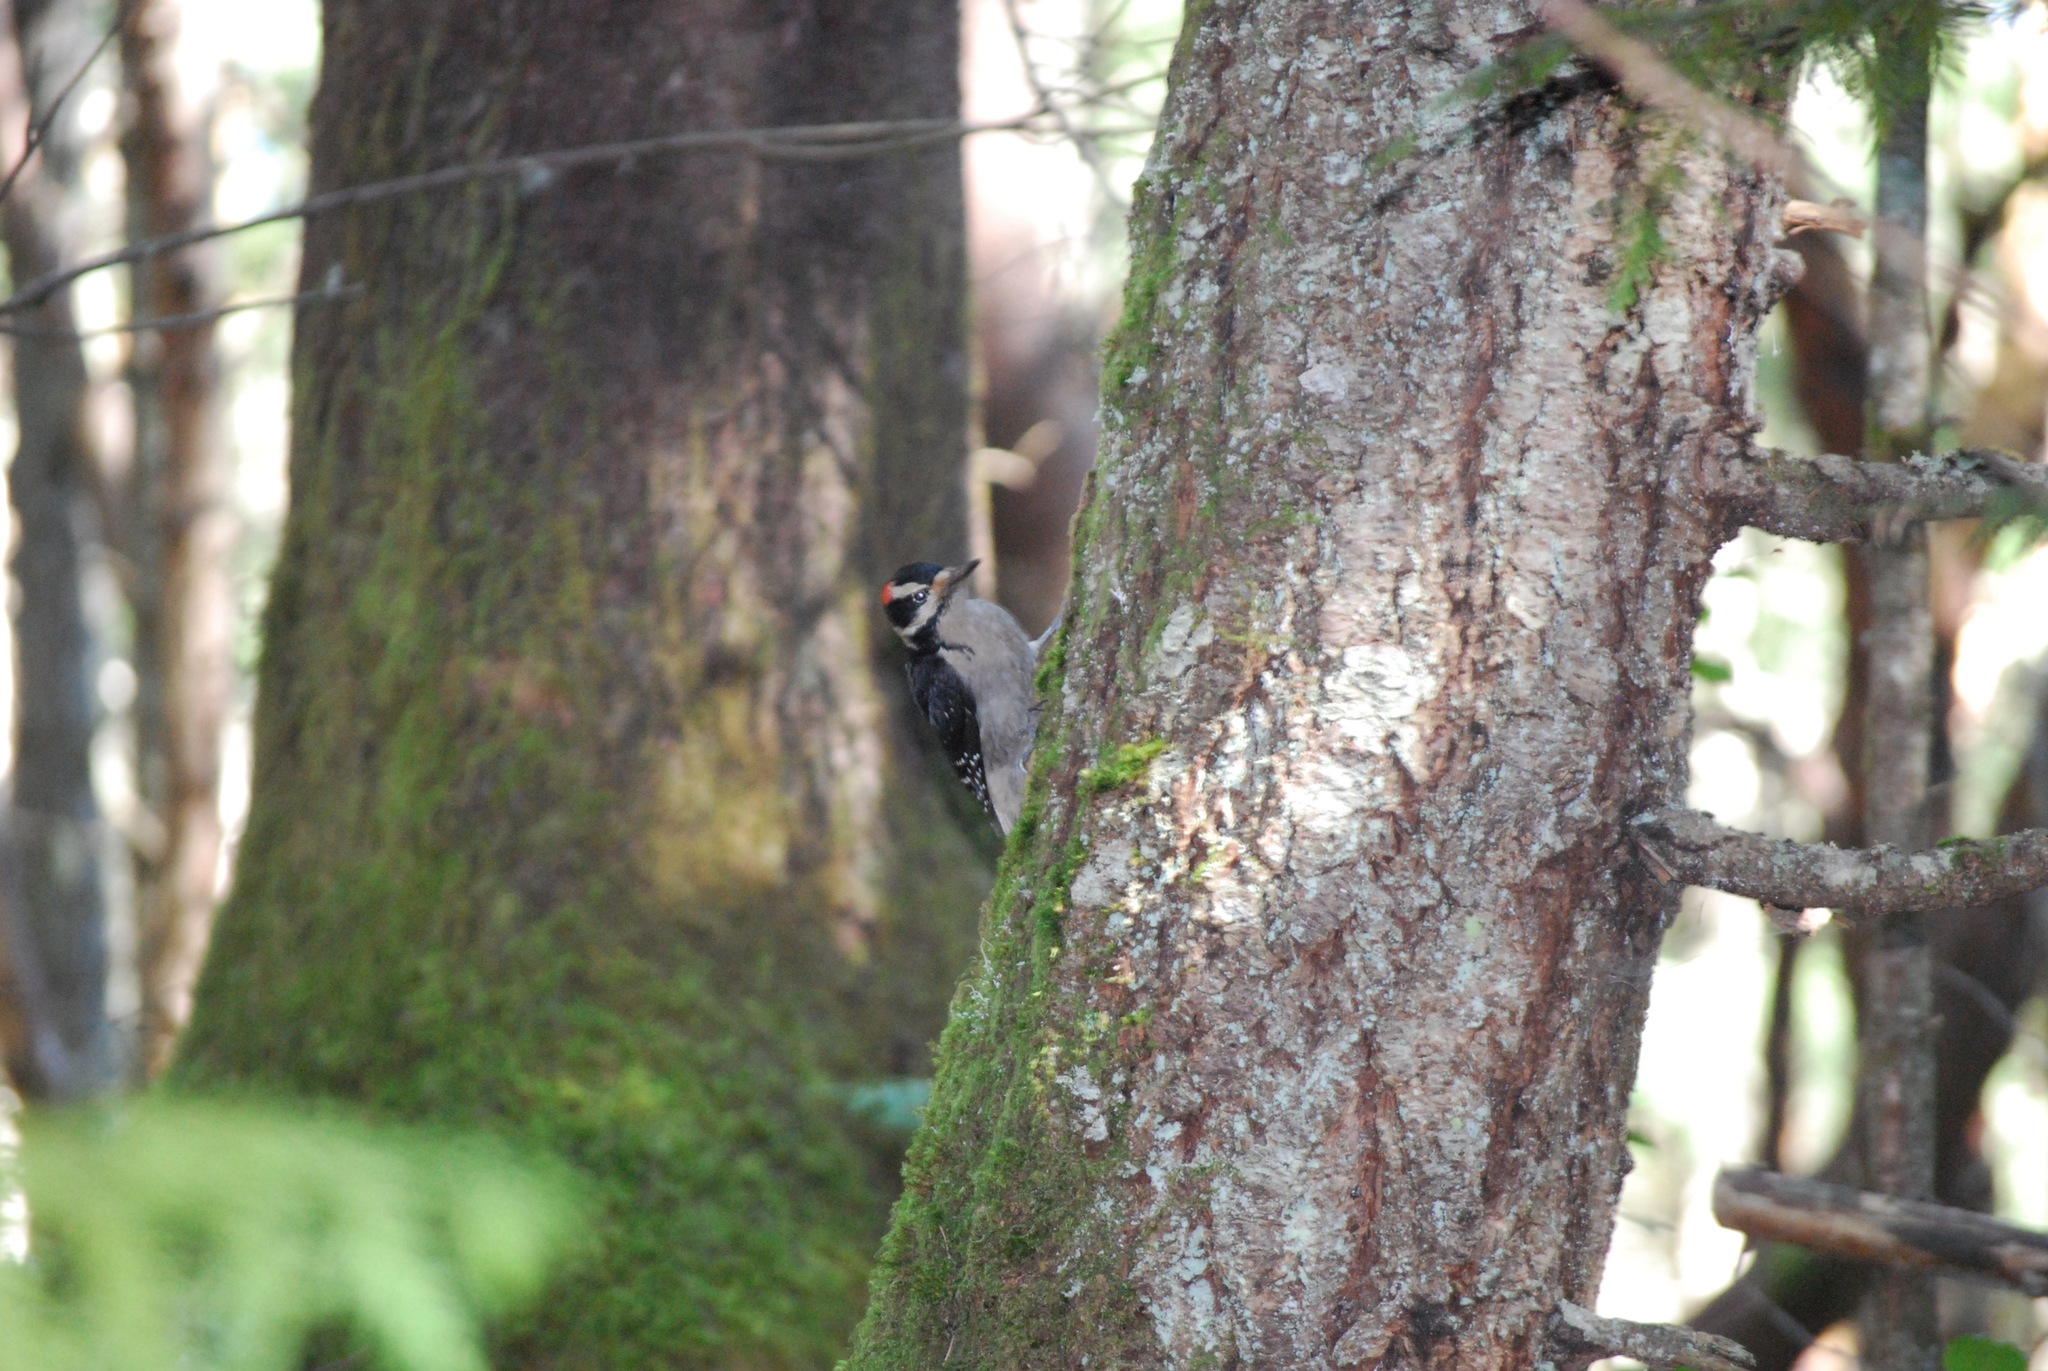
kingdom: Animalia
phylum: Chordata
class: Aves
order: Piciformes
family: Picidae
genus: Leuconotopicus
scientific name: Leuconotopicus villosus
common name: Hairy woodpecker
